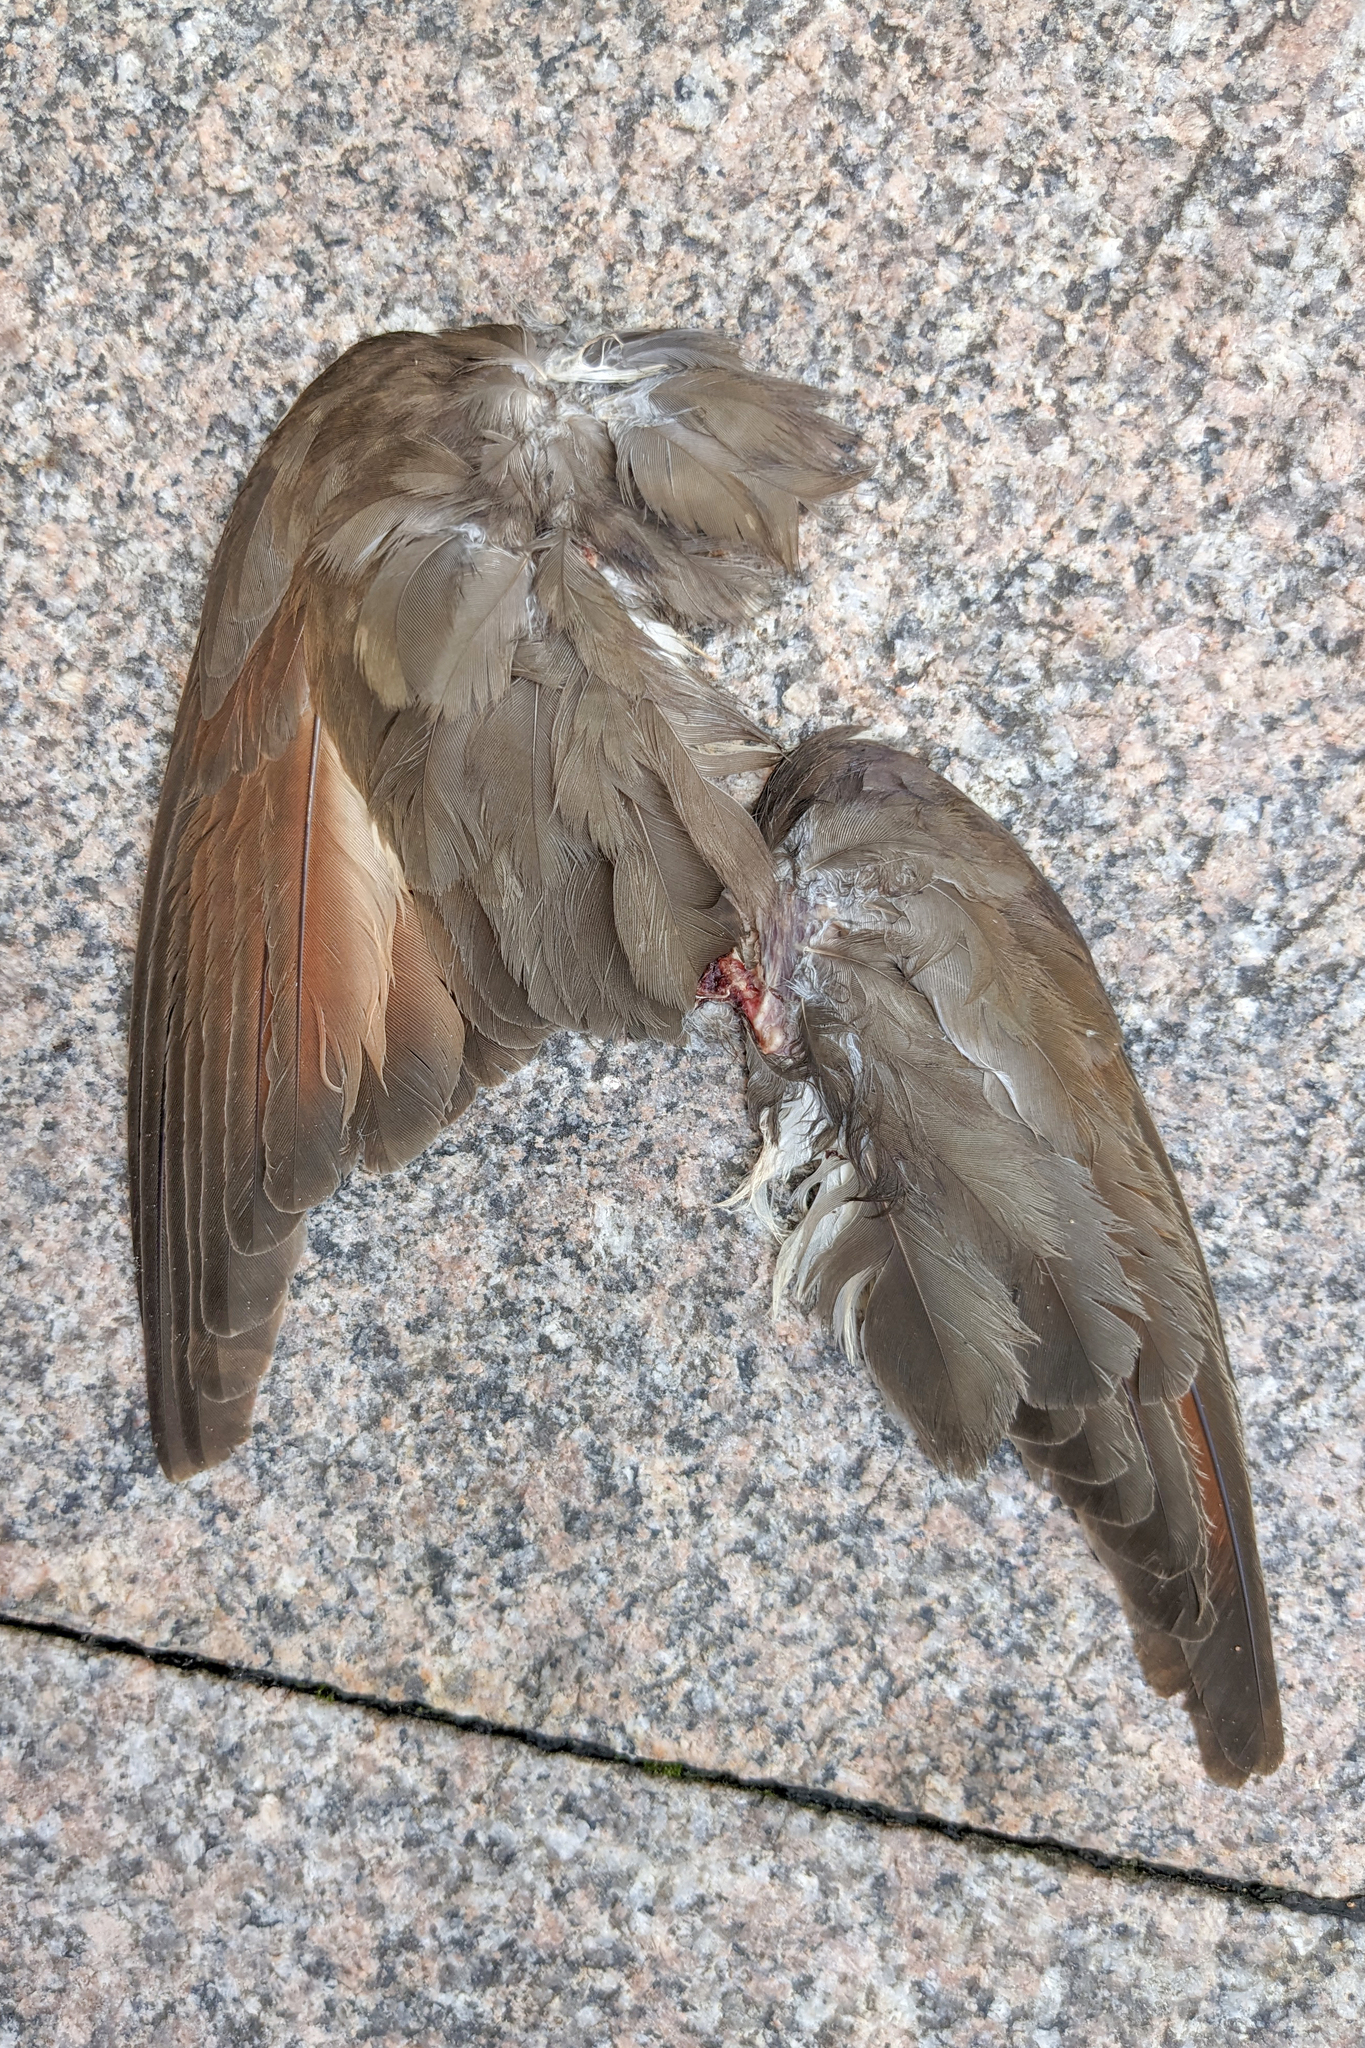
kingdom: Animalia
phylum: Chordata
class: Aves
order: Cuculiformes
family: Cuculidae
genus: Coccyzus
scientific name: Coccyzus americanus
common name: Yellow-billed cuckoo
